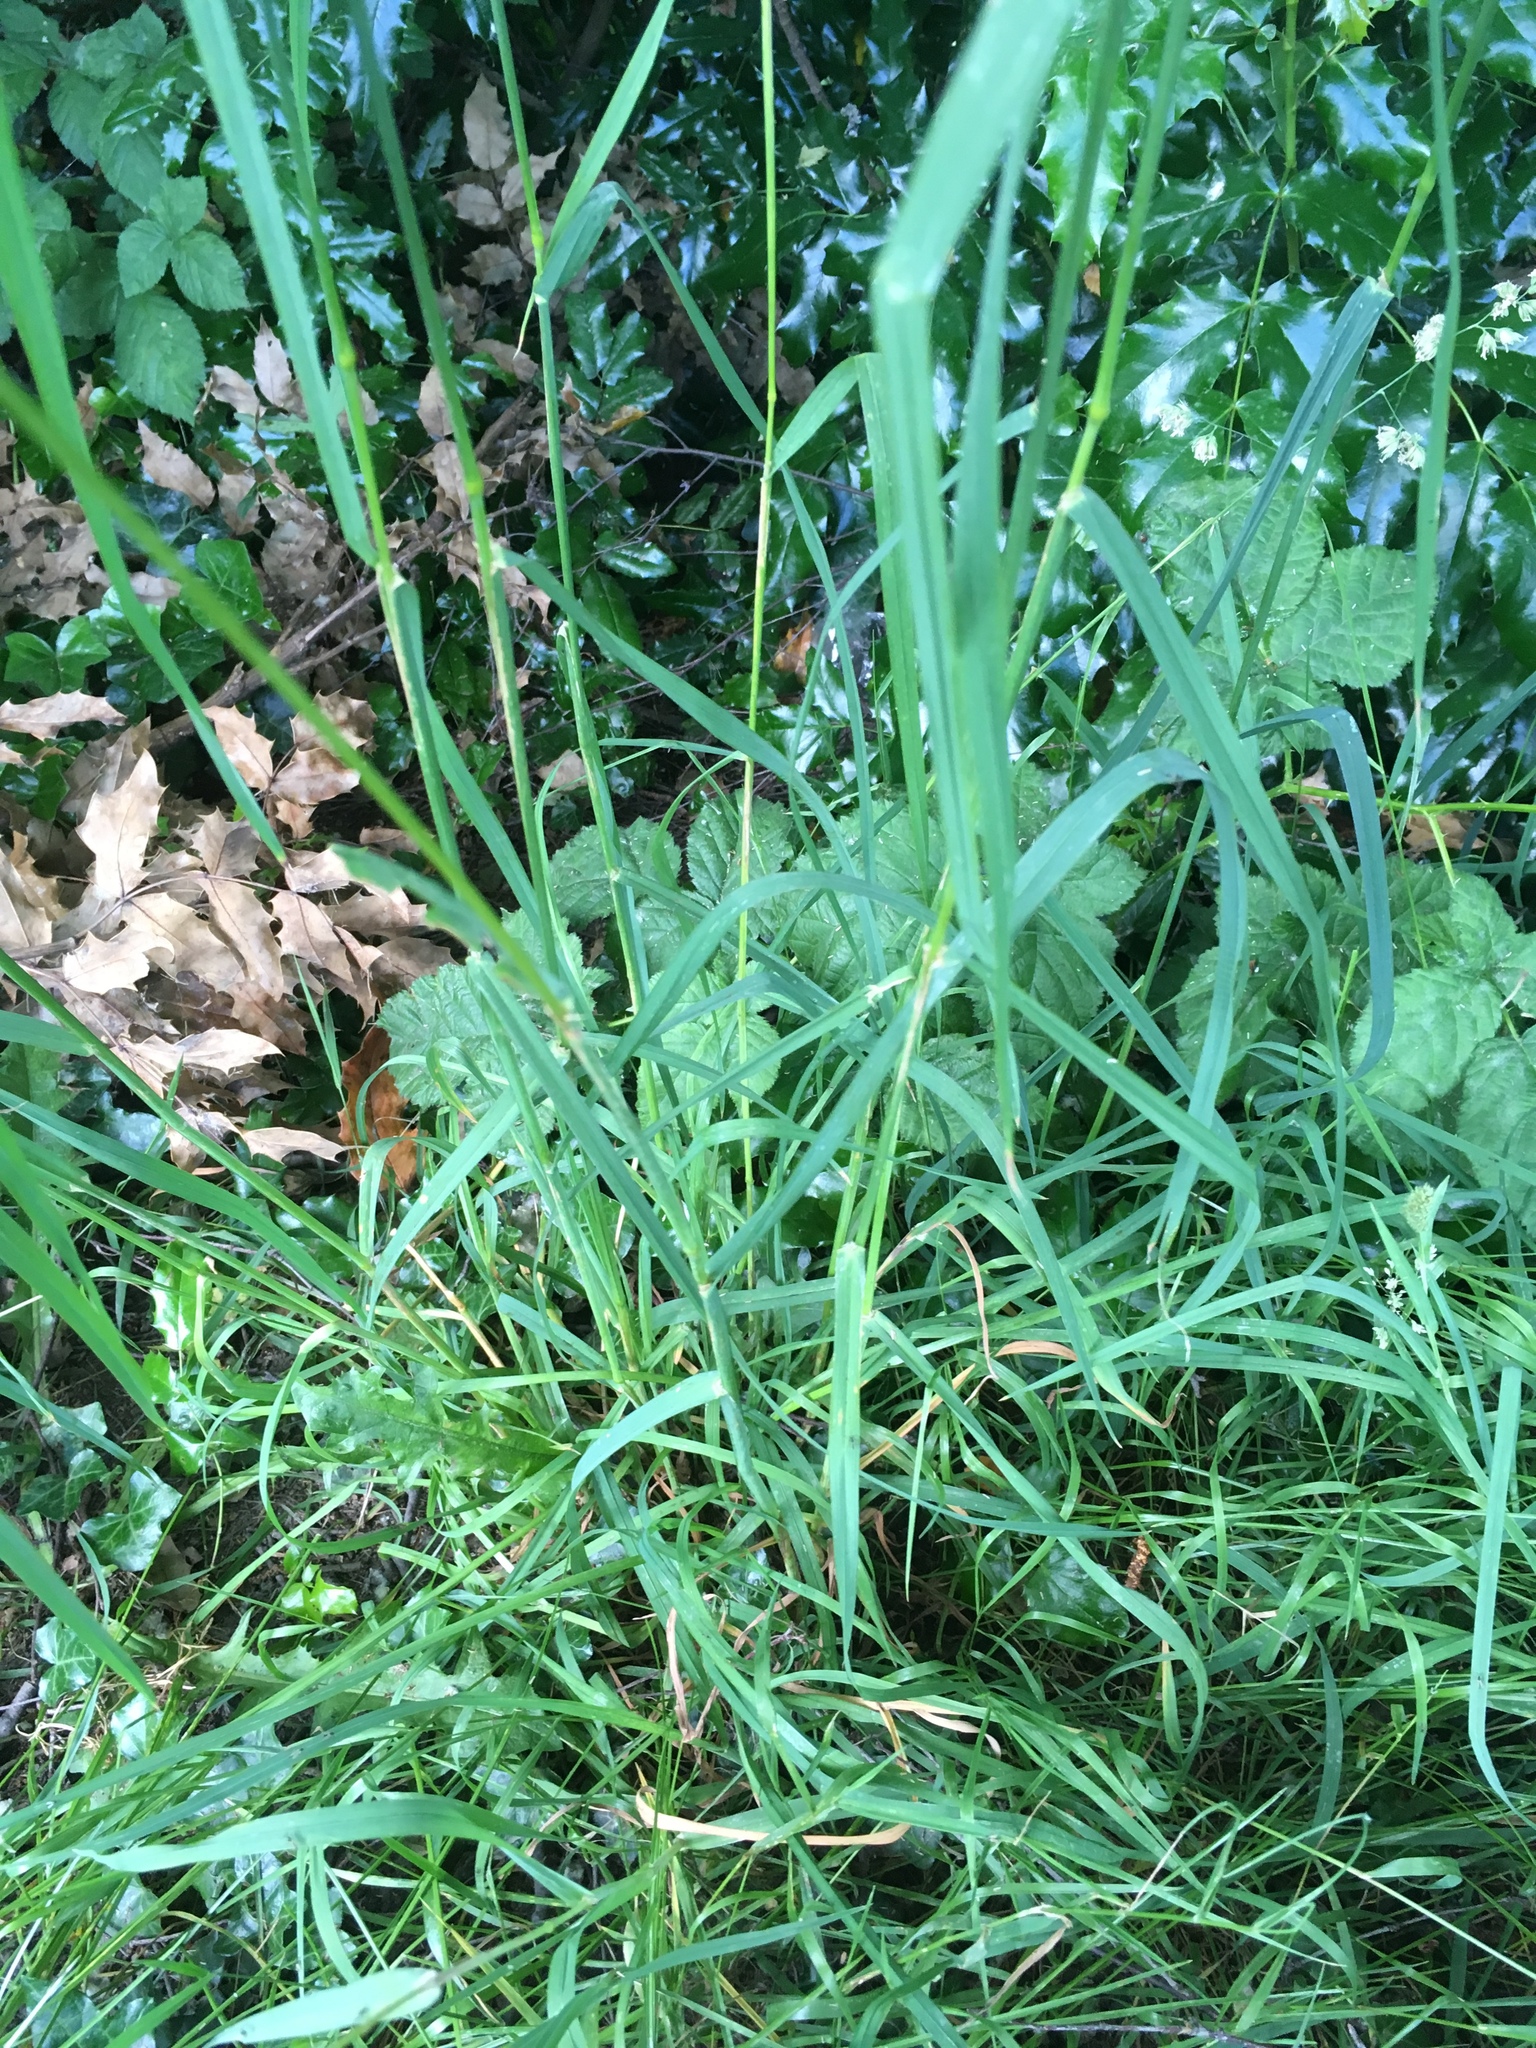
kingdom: Plantae
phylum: Tracheophyta
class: Liliopsida
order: Poales
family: Poaceae
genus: Dactylis
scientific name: Dactylis glomerata
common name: Orchardgrass
